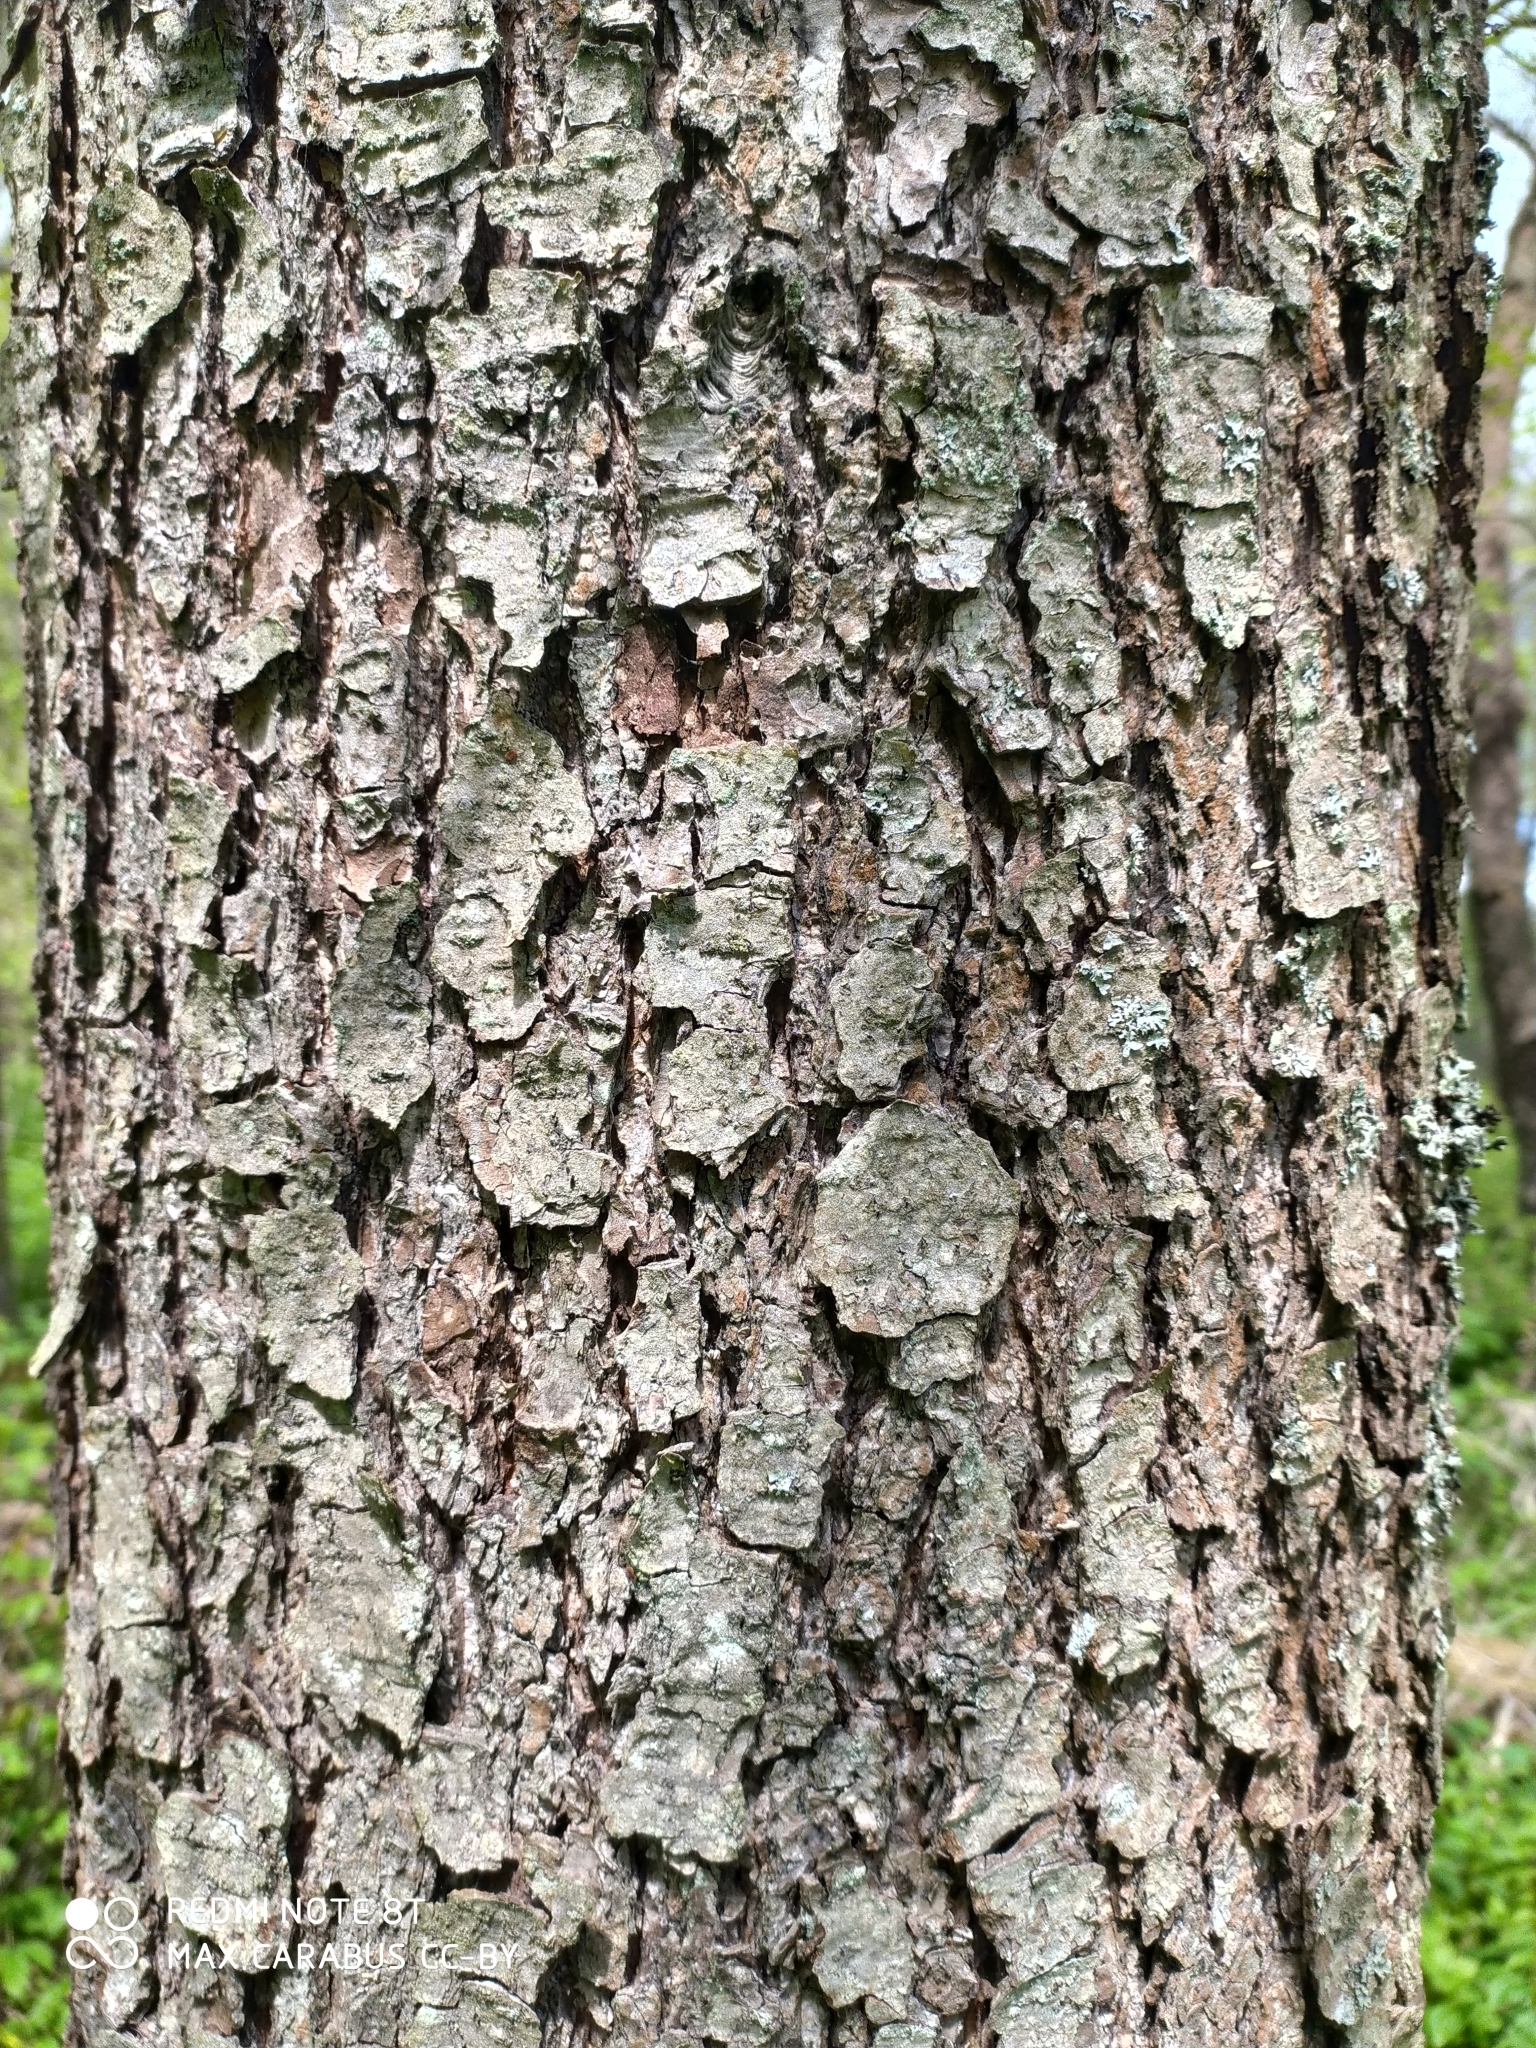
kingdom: Plantae
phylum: Tracheophyta
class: Magnoliopsida
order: Fagales
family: Betulaceae
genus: Alnus
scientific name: Alnus glutinosa
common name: Black alder
